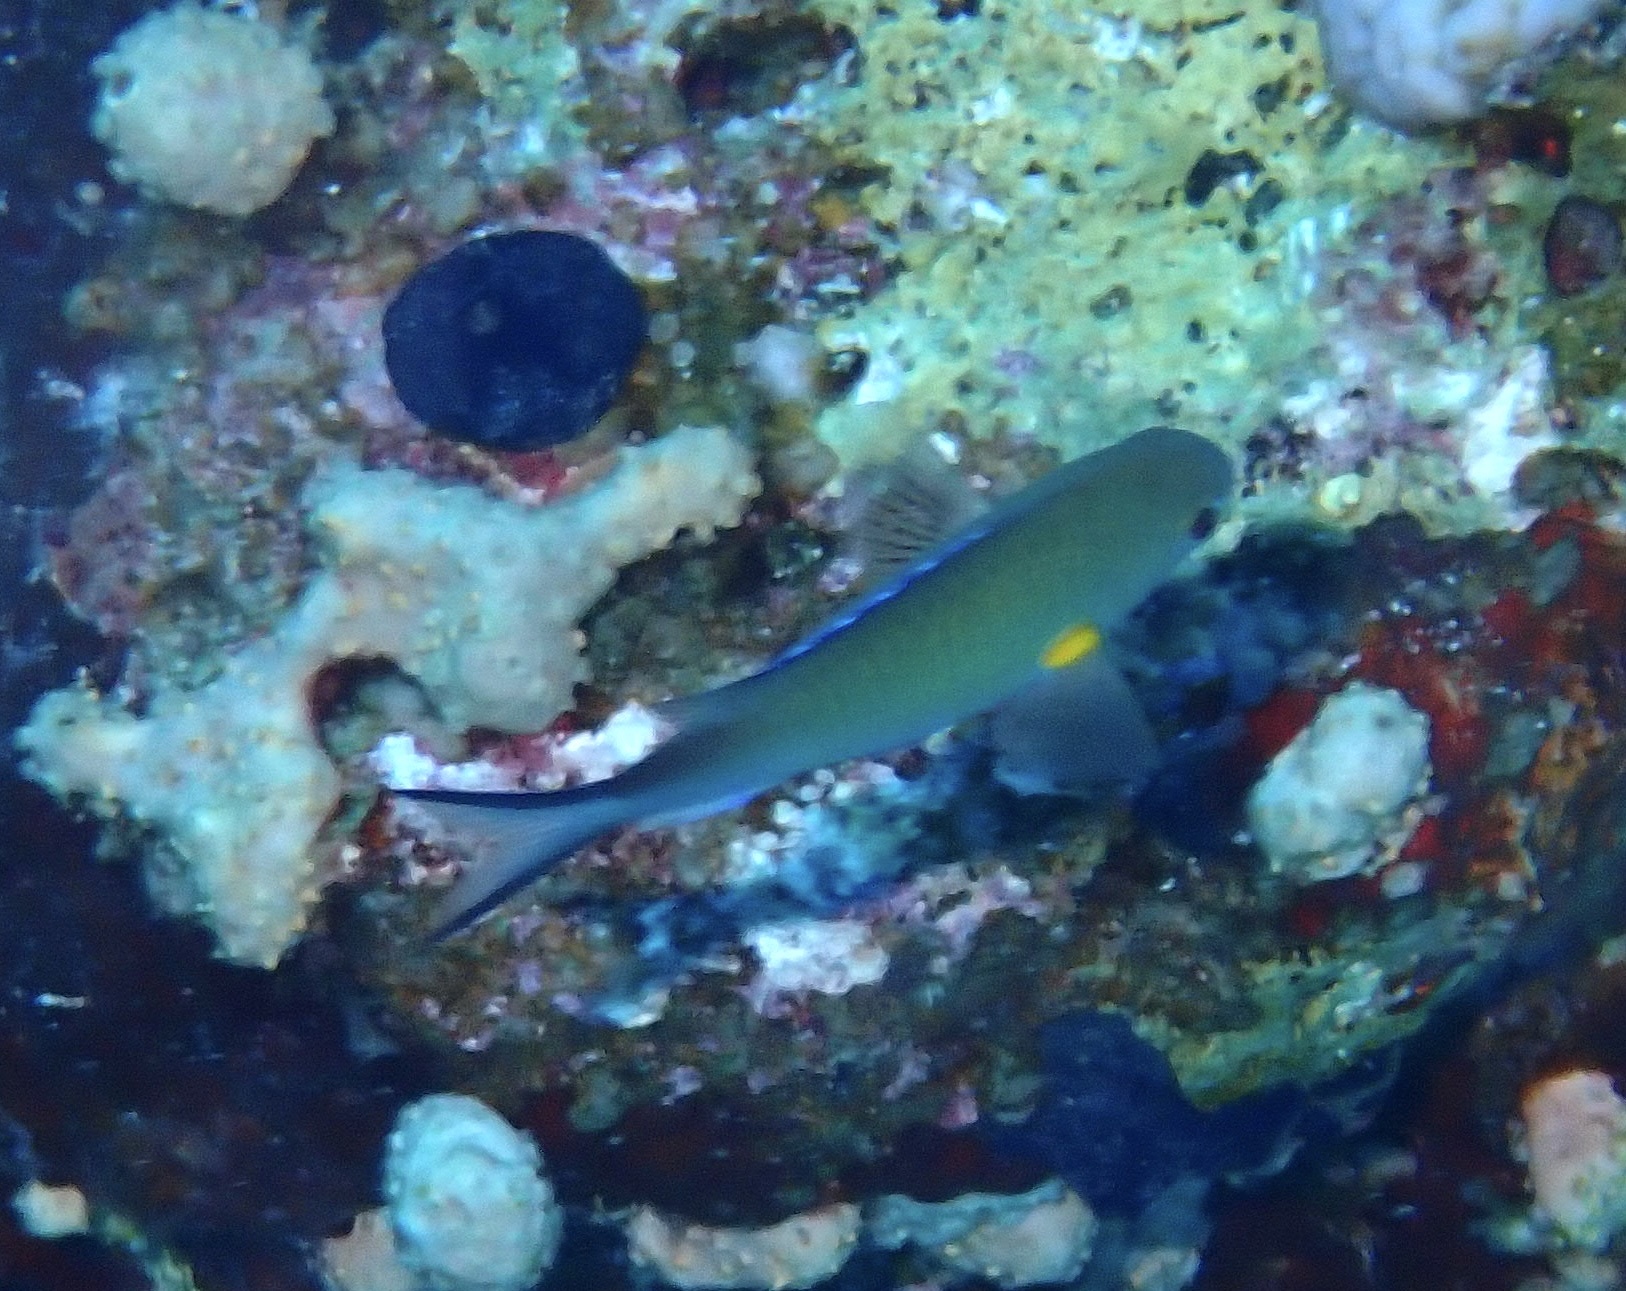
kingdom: Animalia
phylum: Chordata
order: Perciformes
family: Pomacentridae
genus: Chromis
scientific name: Chromis flavaxilla
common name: Arabian chromis
